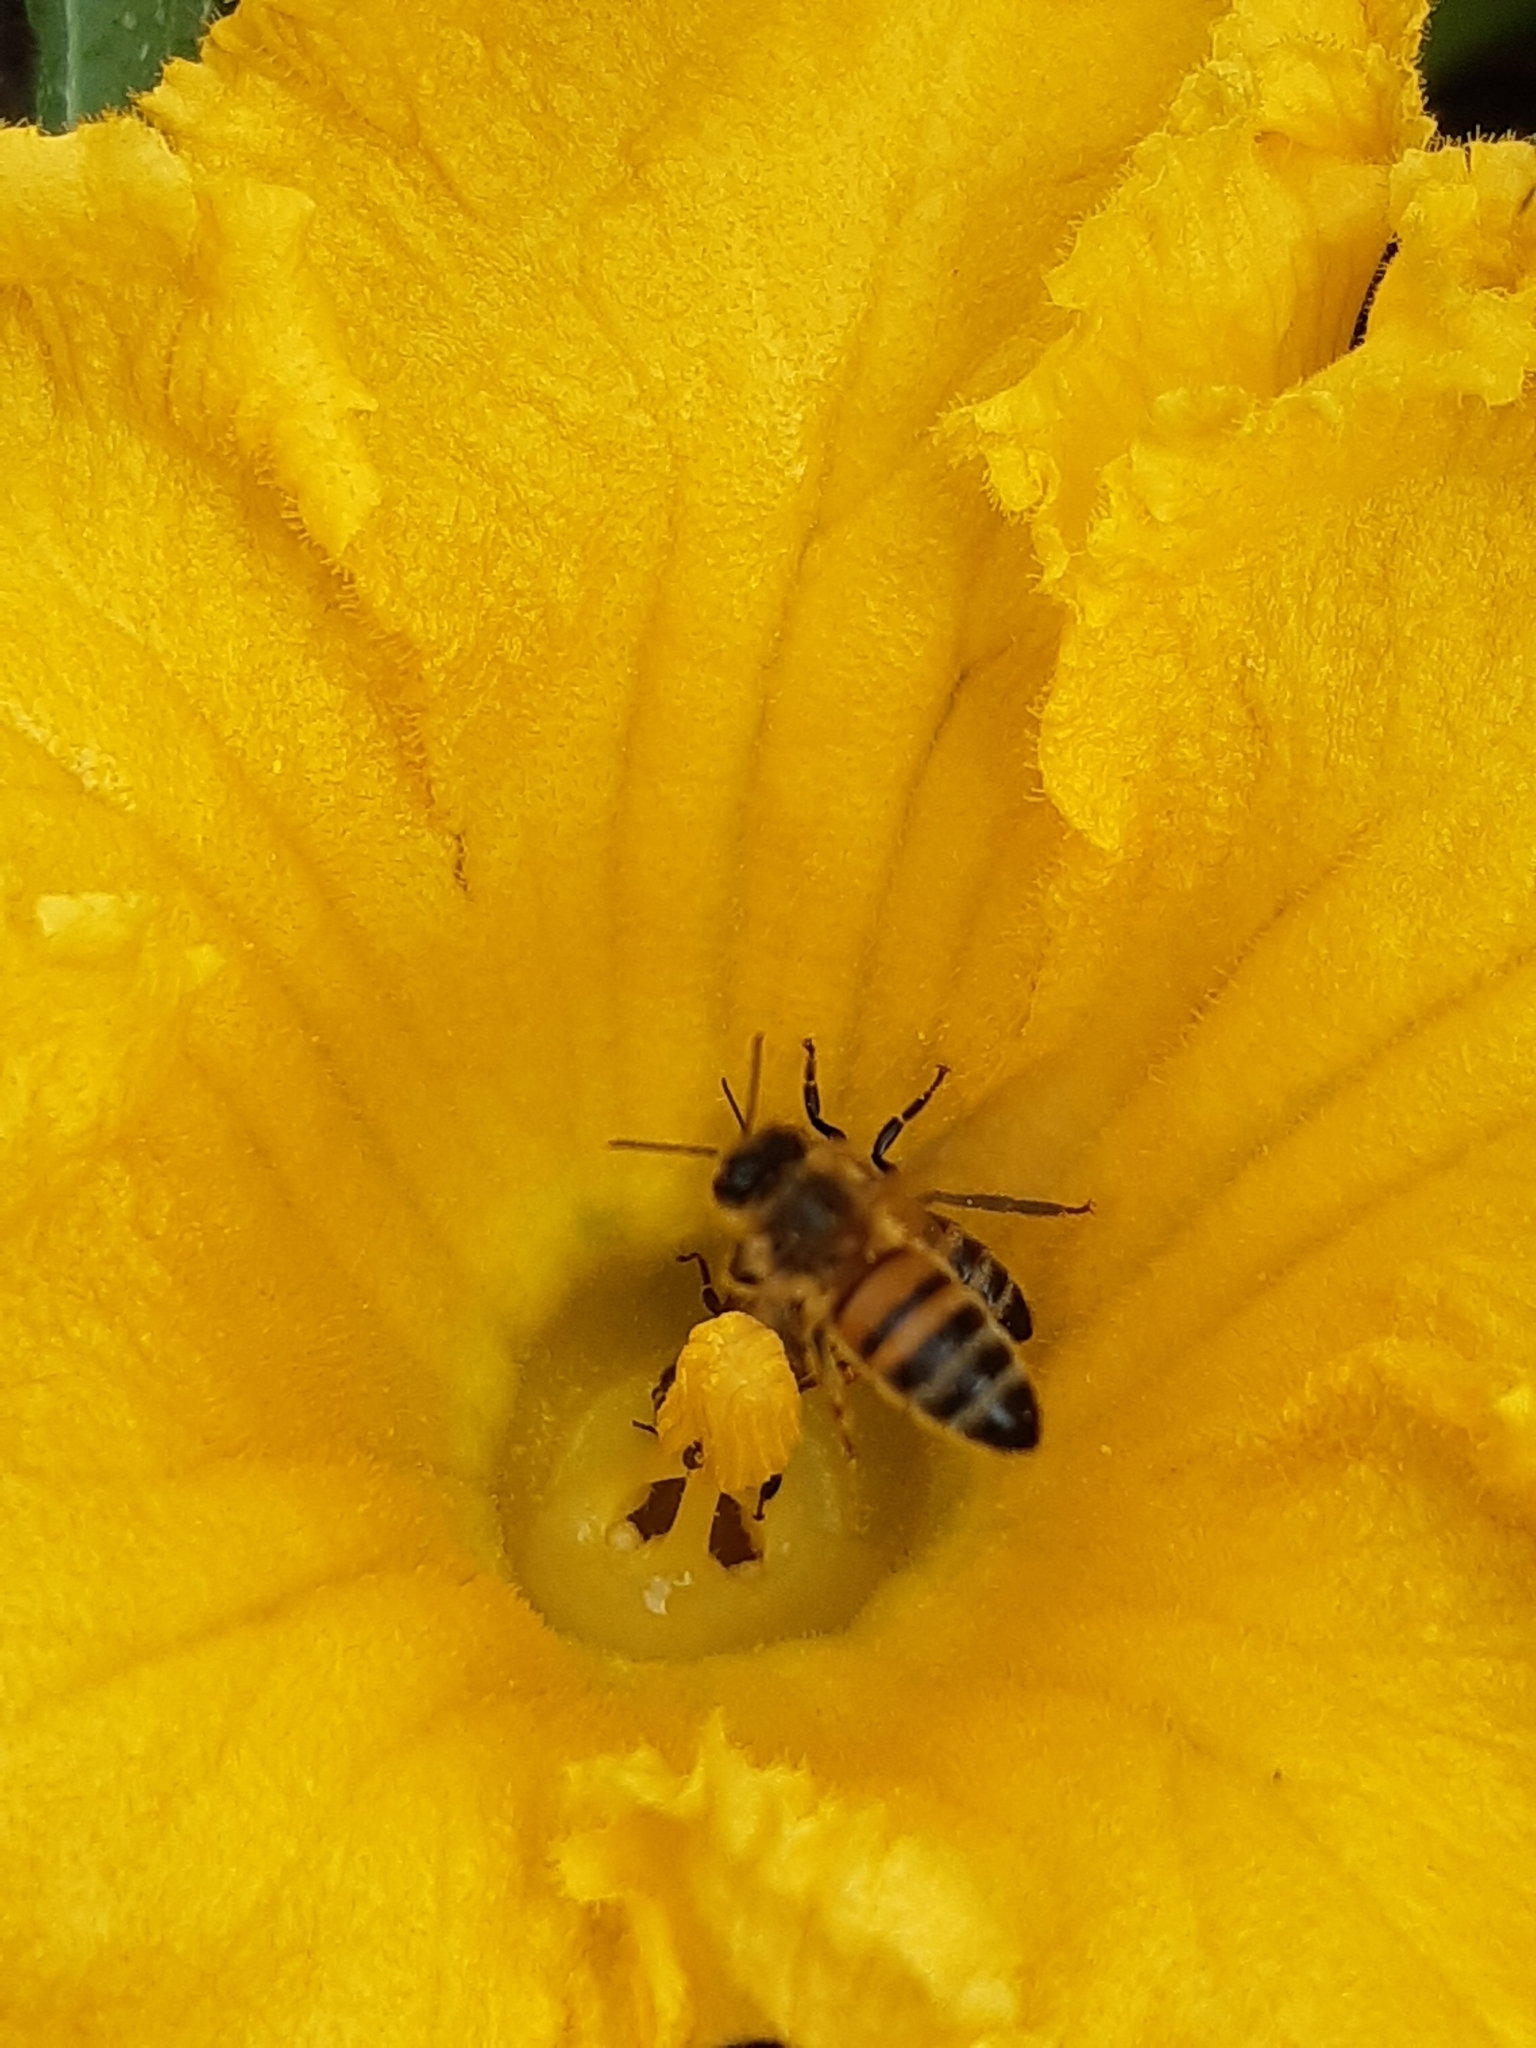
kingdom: Animalia
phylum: Arthropoda
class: Insecta
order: Hymenoptera
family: Apidae
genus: Apis
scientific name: Apis mellifera
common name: Honey bee
